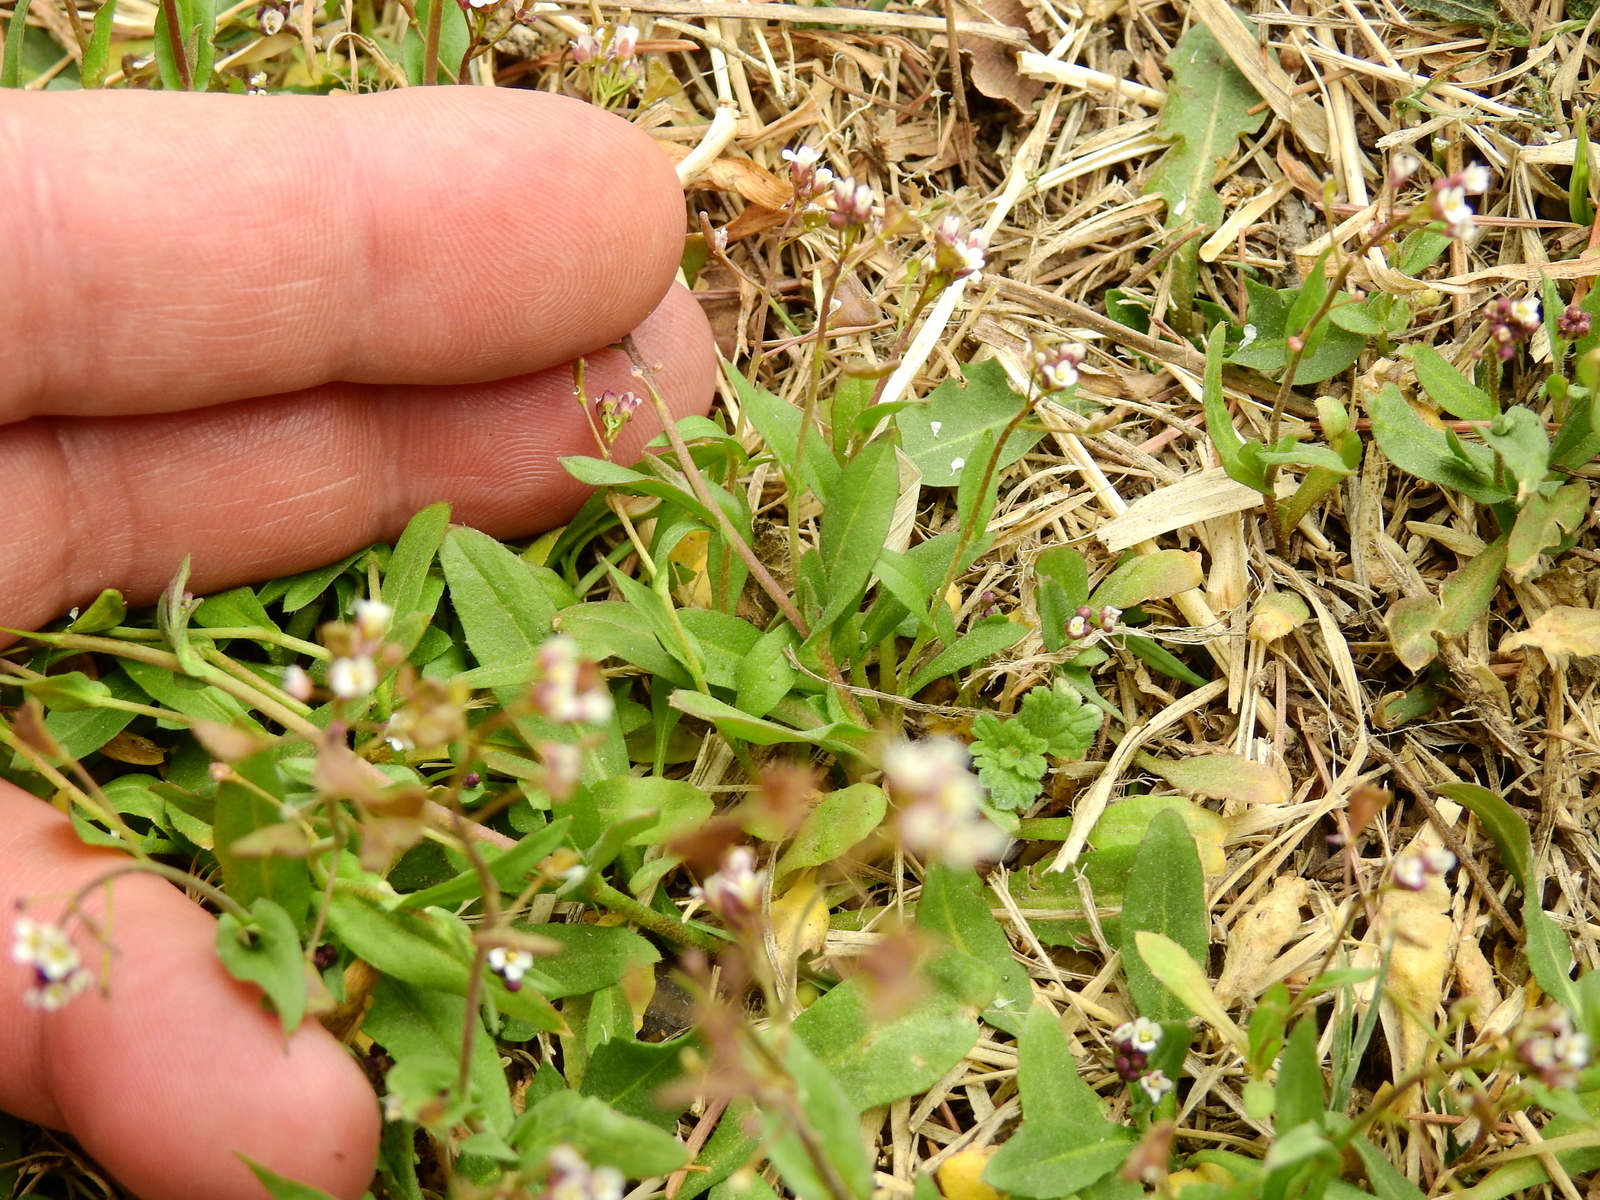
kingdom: Plantae
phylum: Tracheophyta
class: Magnoliopsida
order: Brassicales
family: Brassicaceae
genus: Capsella
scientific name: Capsella bursa-pastoris
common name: Shepherd's purse
